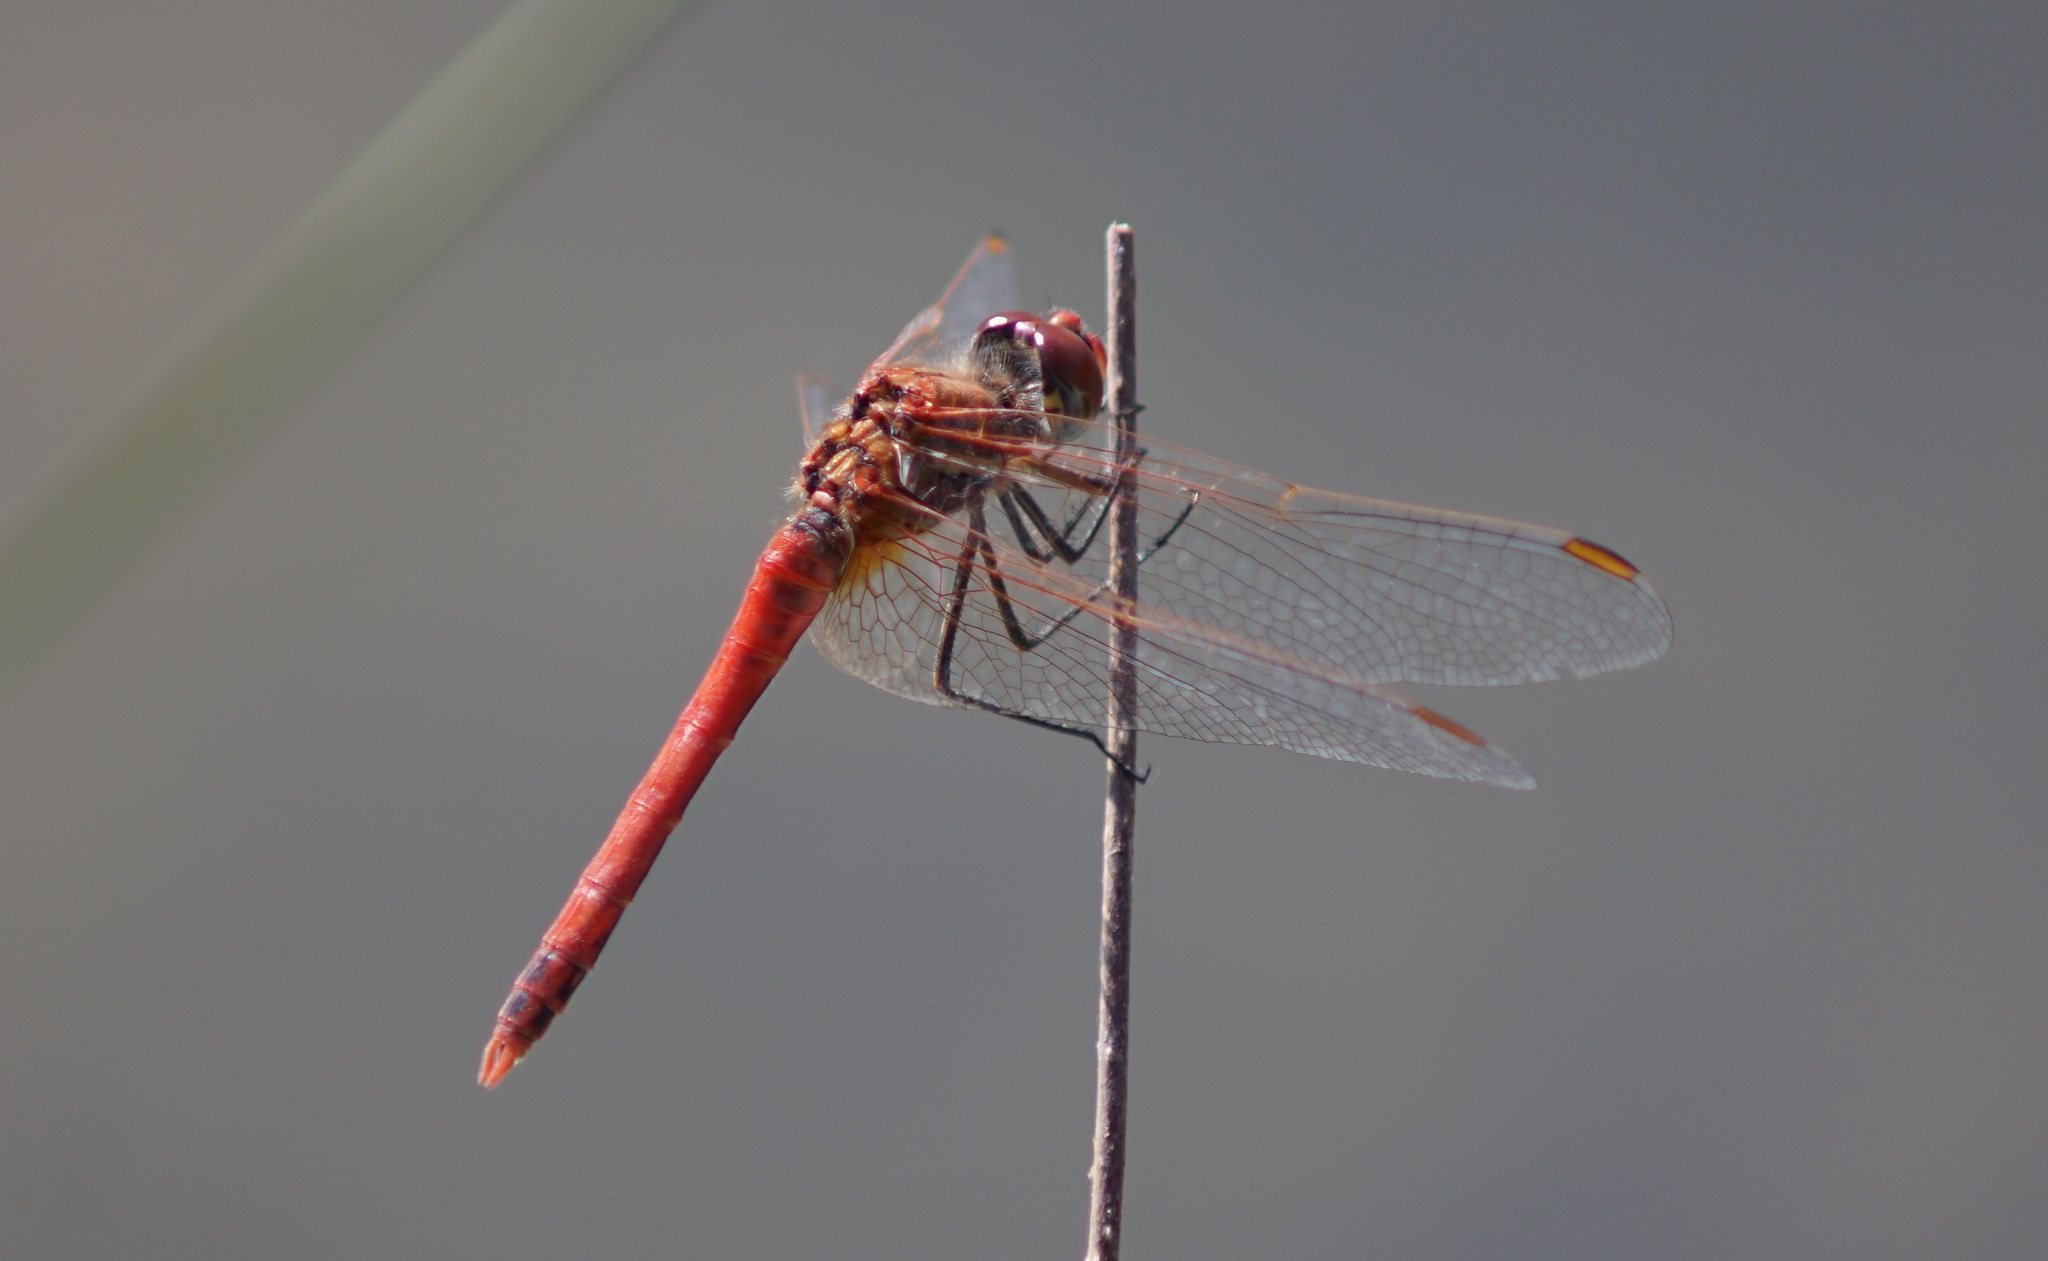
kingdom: Animalia
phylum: Arthropoda
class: Insecta
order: Odonata
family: Libellulidae
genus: Sympetrum
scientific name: Sympetrum fonscolombii
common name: Red-veined darter
